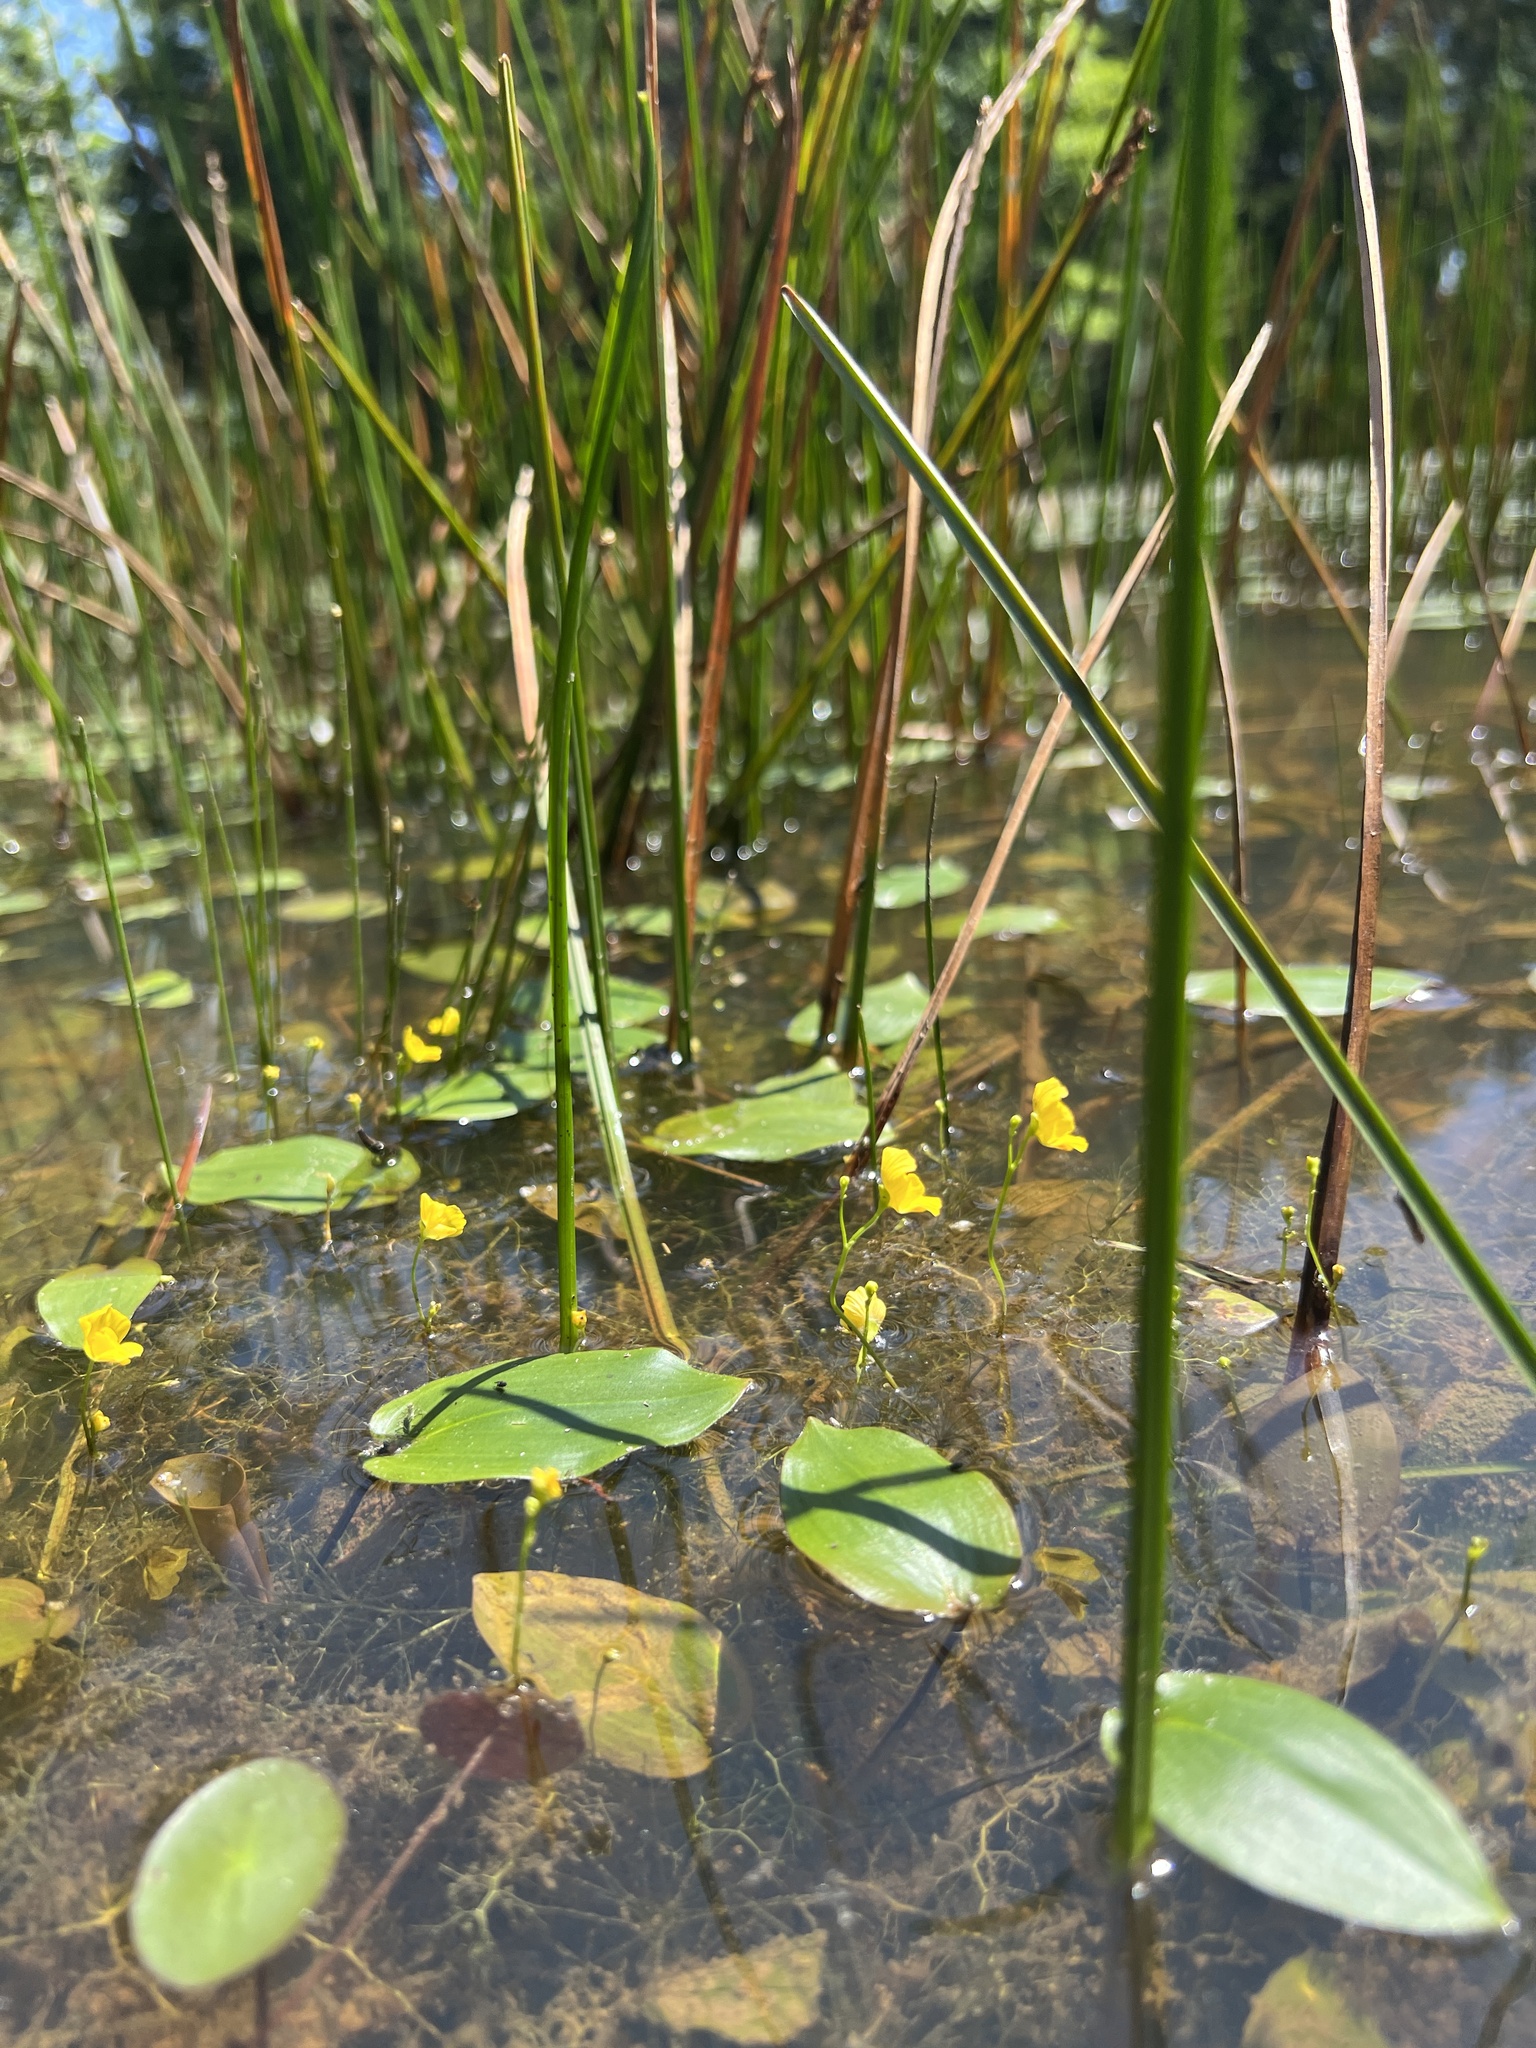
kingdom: Plantae
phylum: Tracheophyta
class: Magnoliopsida
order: Lamiales
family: Lentibulariaceae
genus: Utricularia
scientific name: Utricularia gibba
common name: Humped bladderwort
